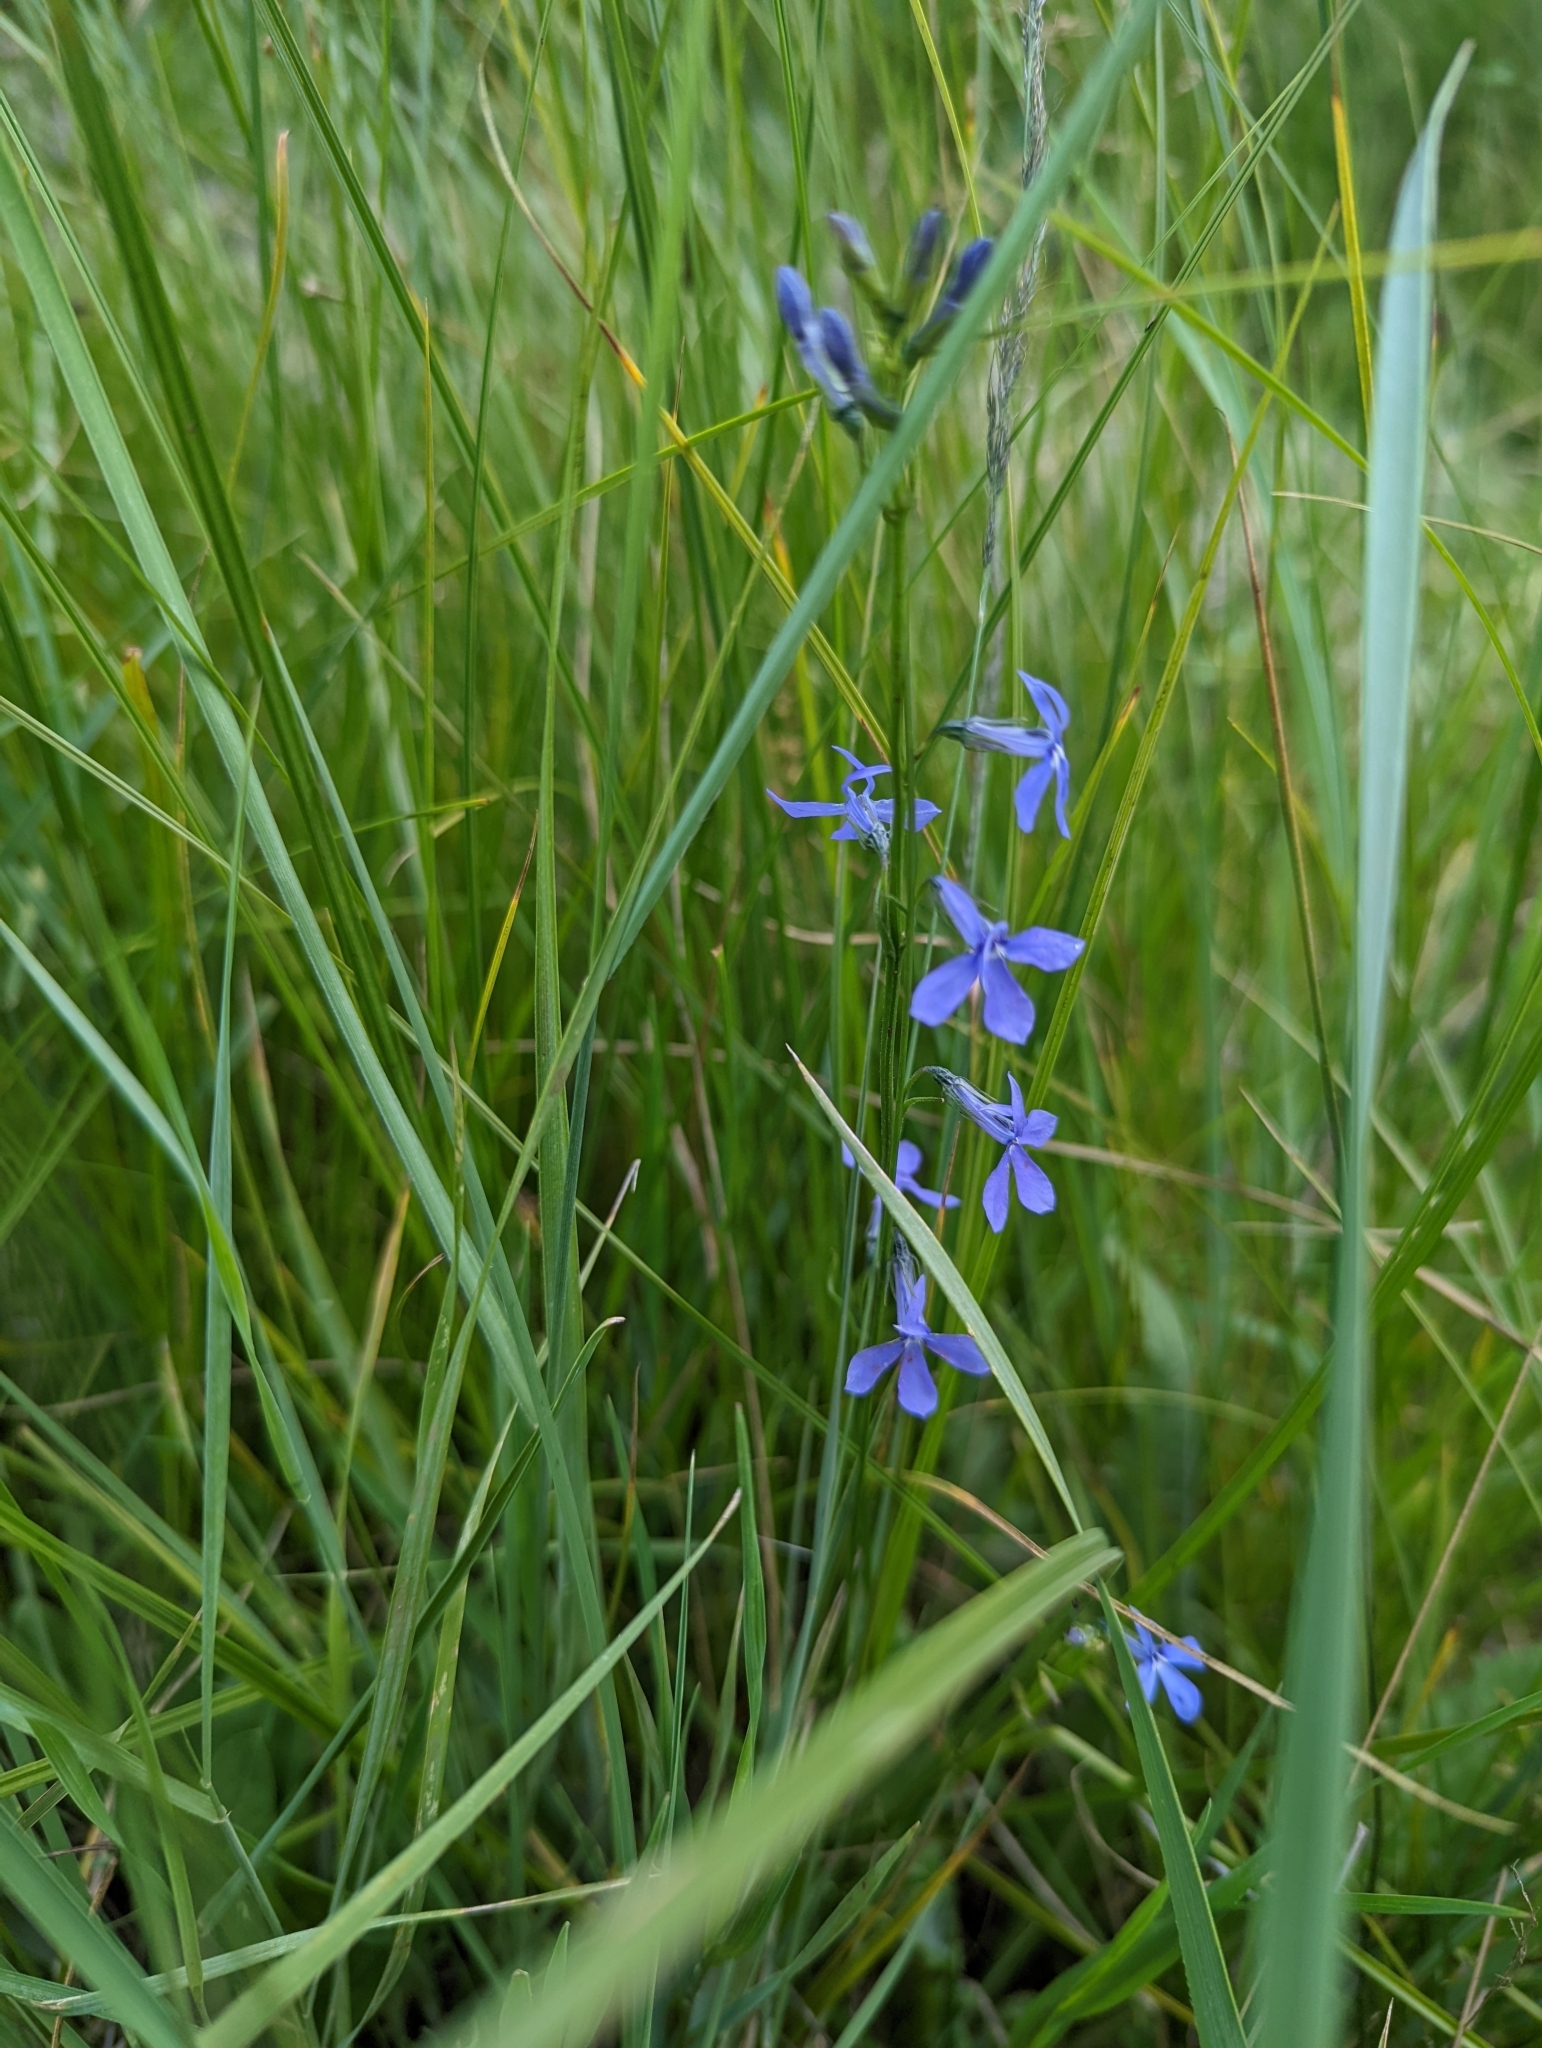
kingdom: Plantae
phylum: Tracheophyta
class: Magnoliopsida
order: Asterales
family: Campanulaceae
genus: Lobelia
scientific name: Lobelia anatina
